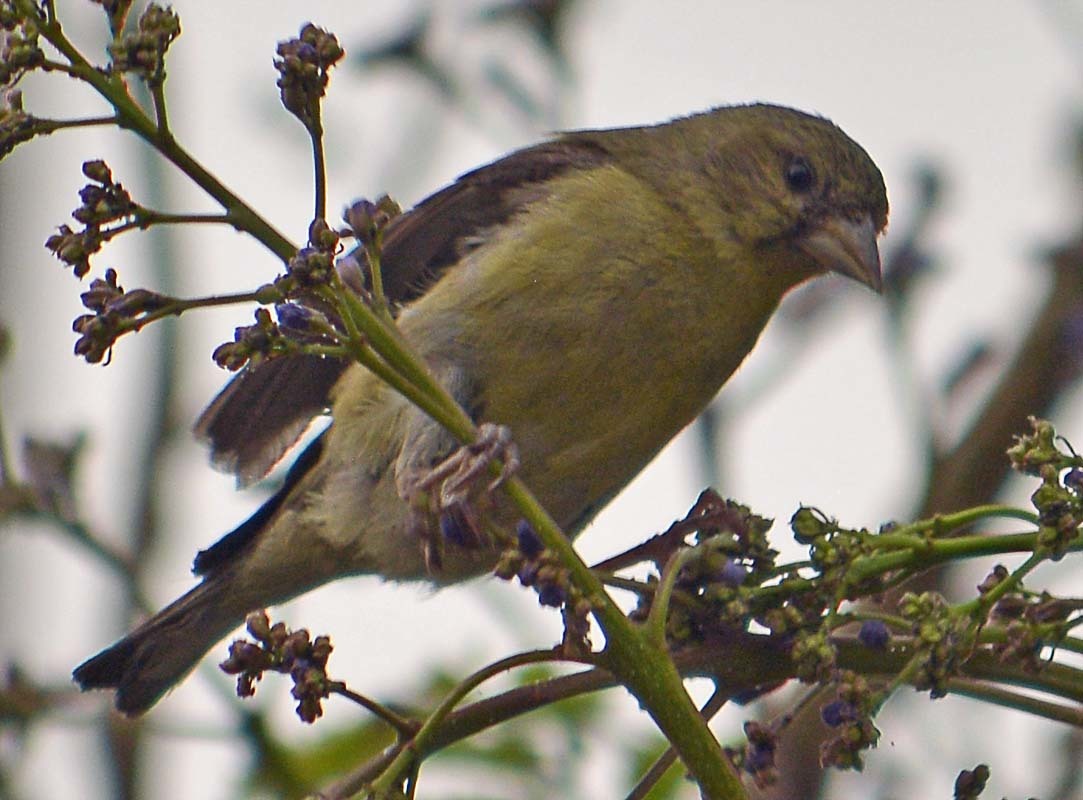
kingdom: Animalia
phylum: Chordata
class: Aves
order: Passeriformes
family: Fringillidae
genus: Spinus
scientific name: Spinus psaltria
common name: Lesser goldfinch
